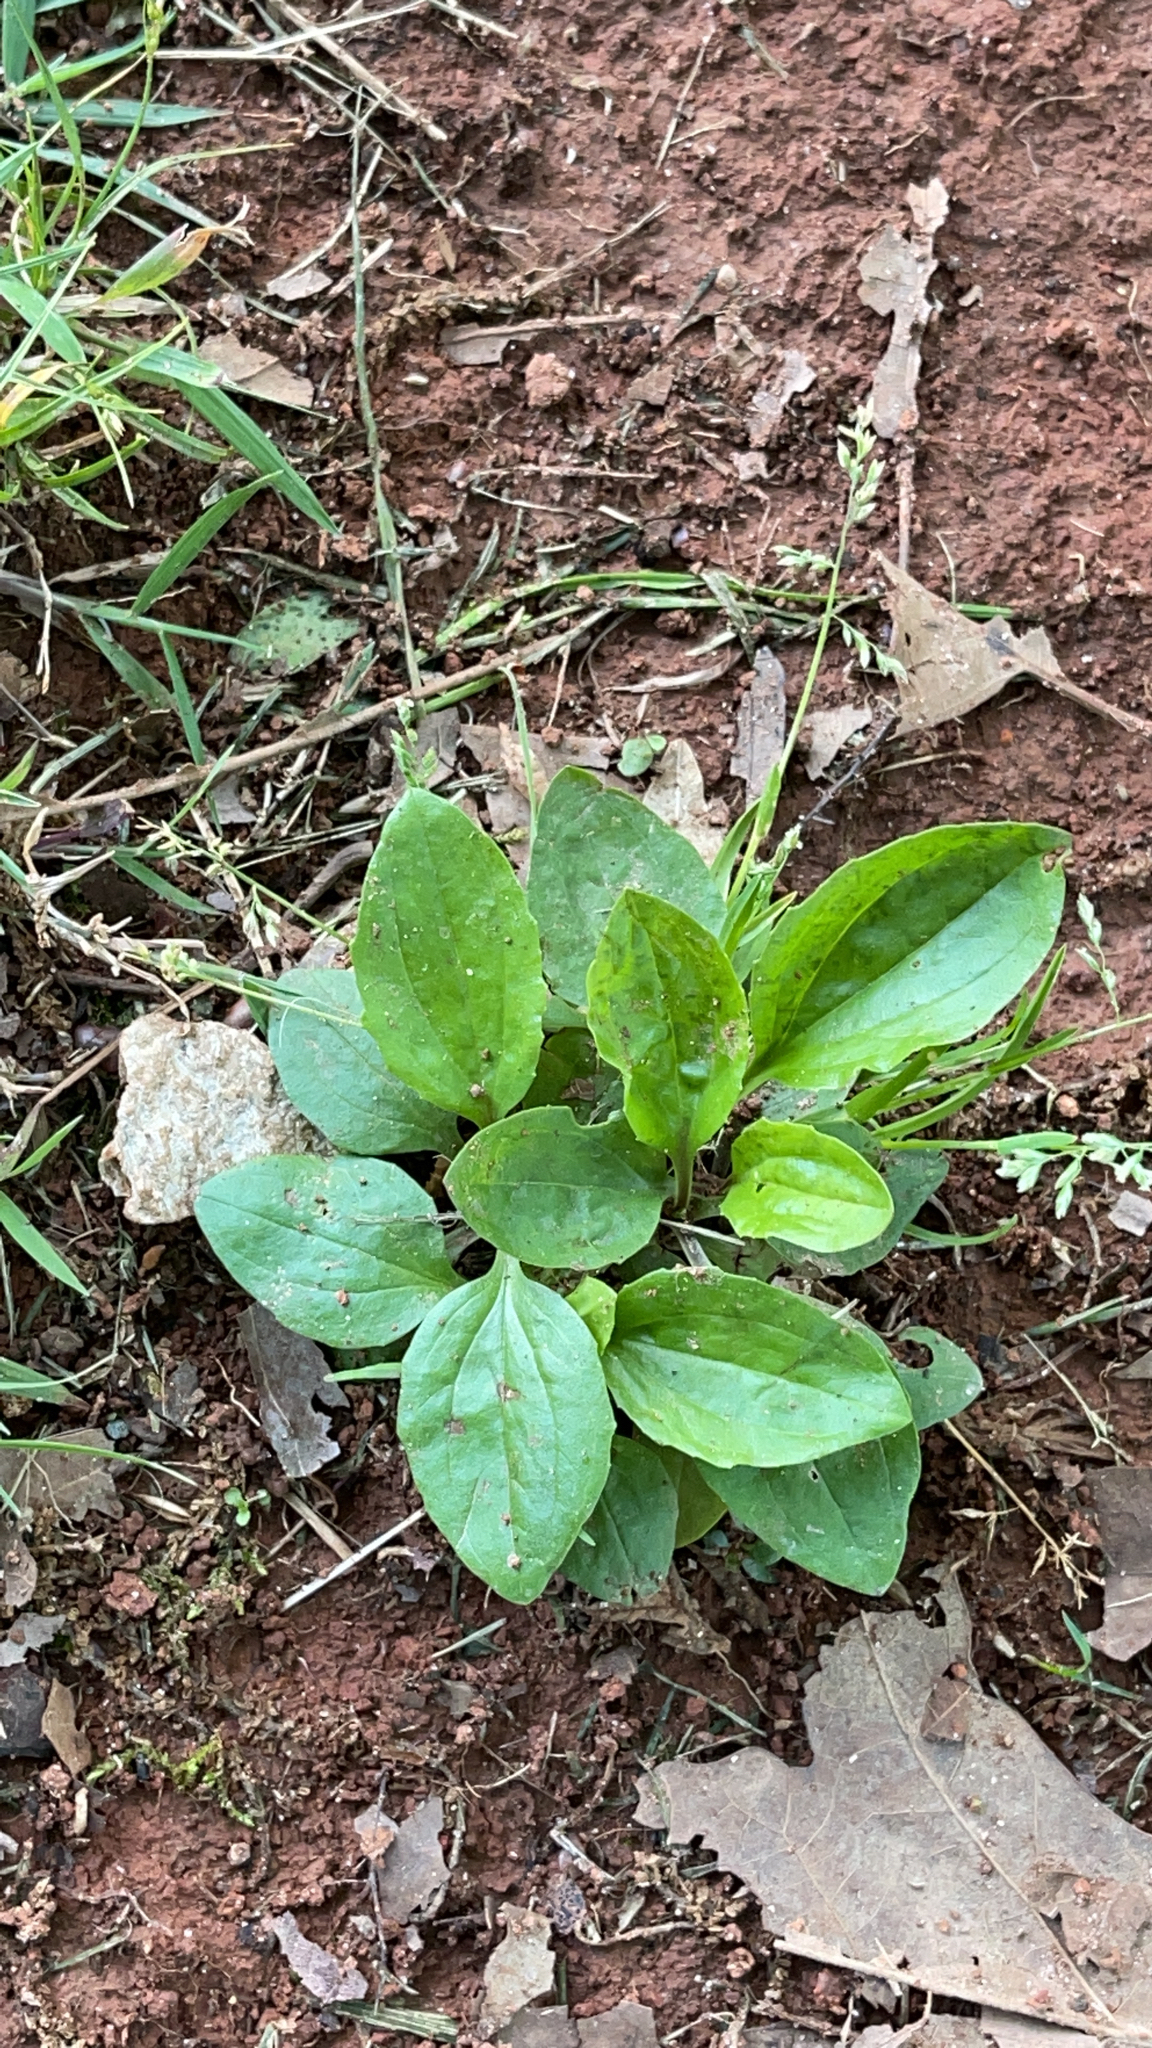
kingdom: Plantae
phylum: Tracheophyta
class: Magnoliopsida
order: Lamiales
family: Plantaginaceae
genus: Plantago
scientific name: Plantago rugelii
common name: American plantain
